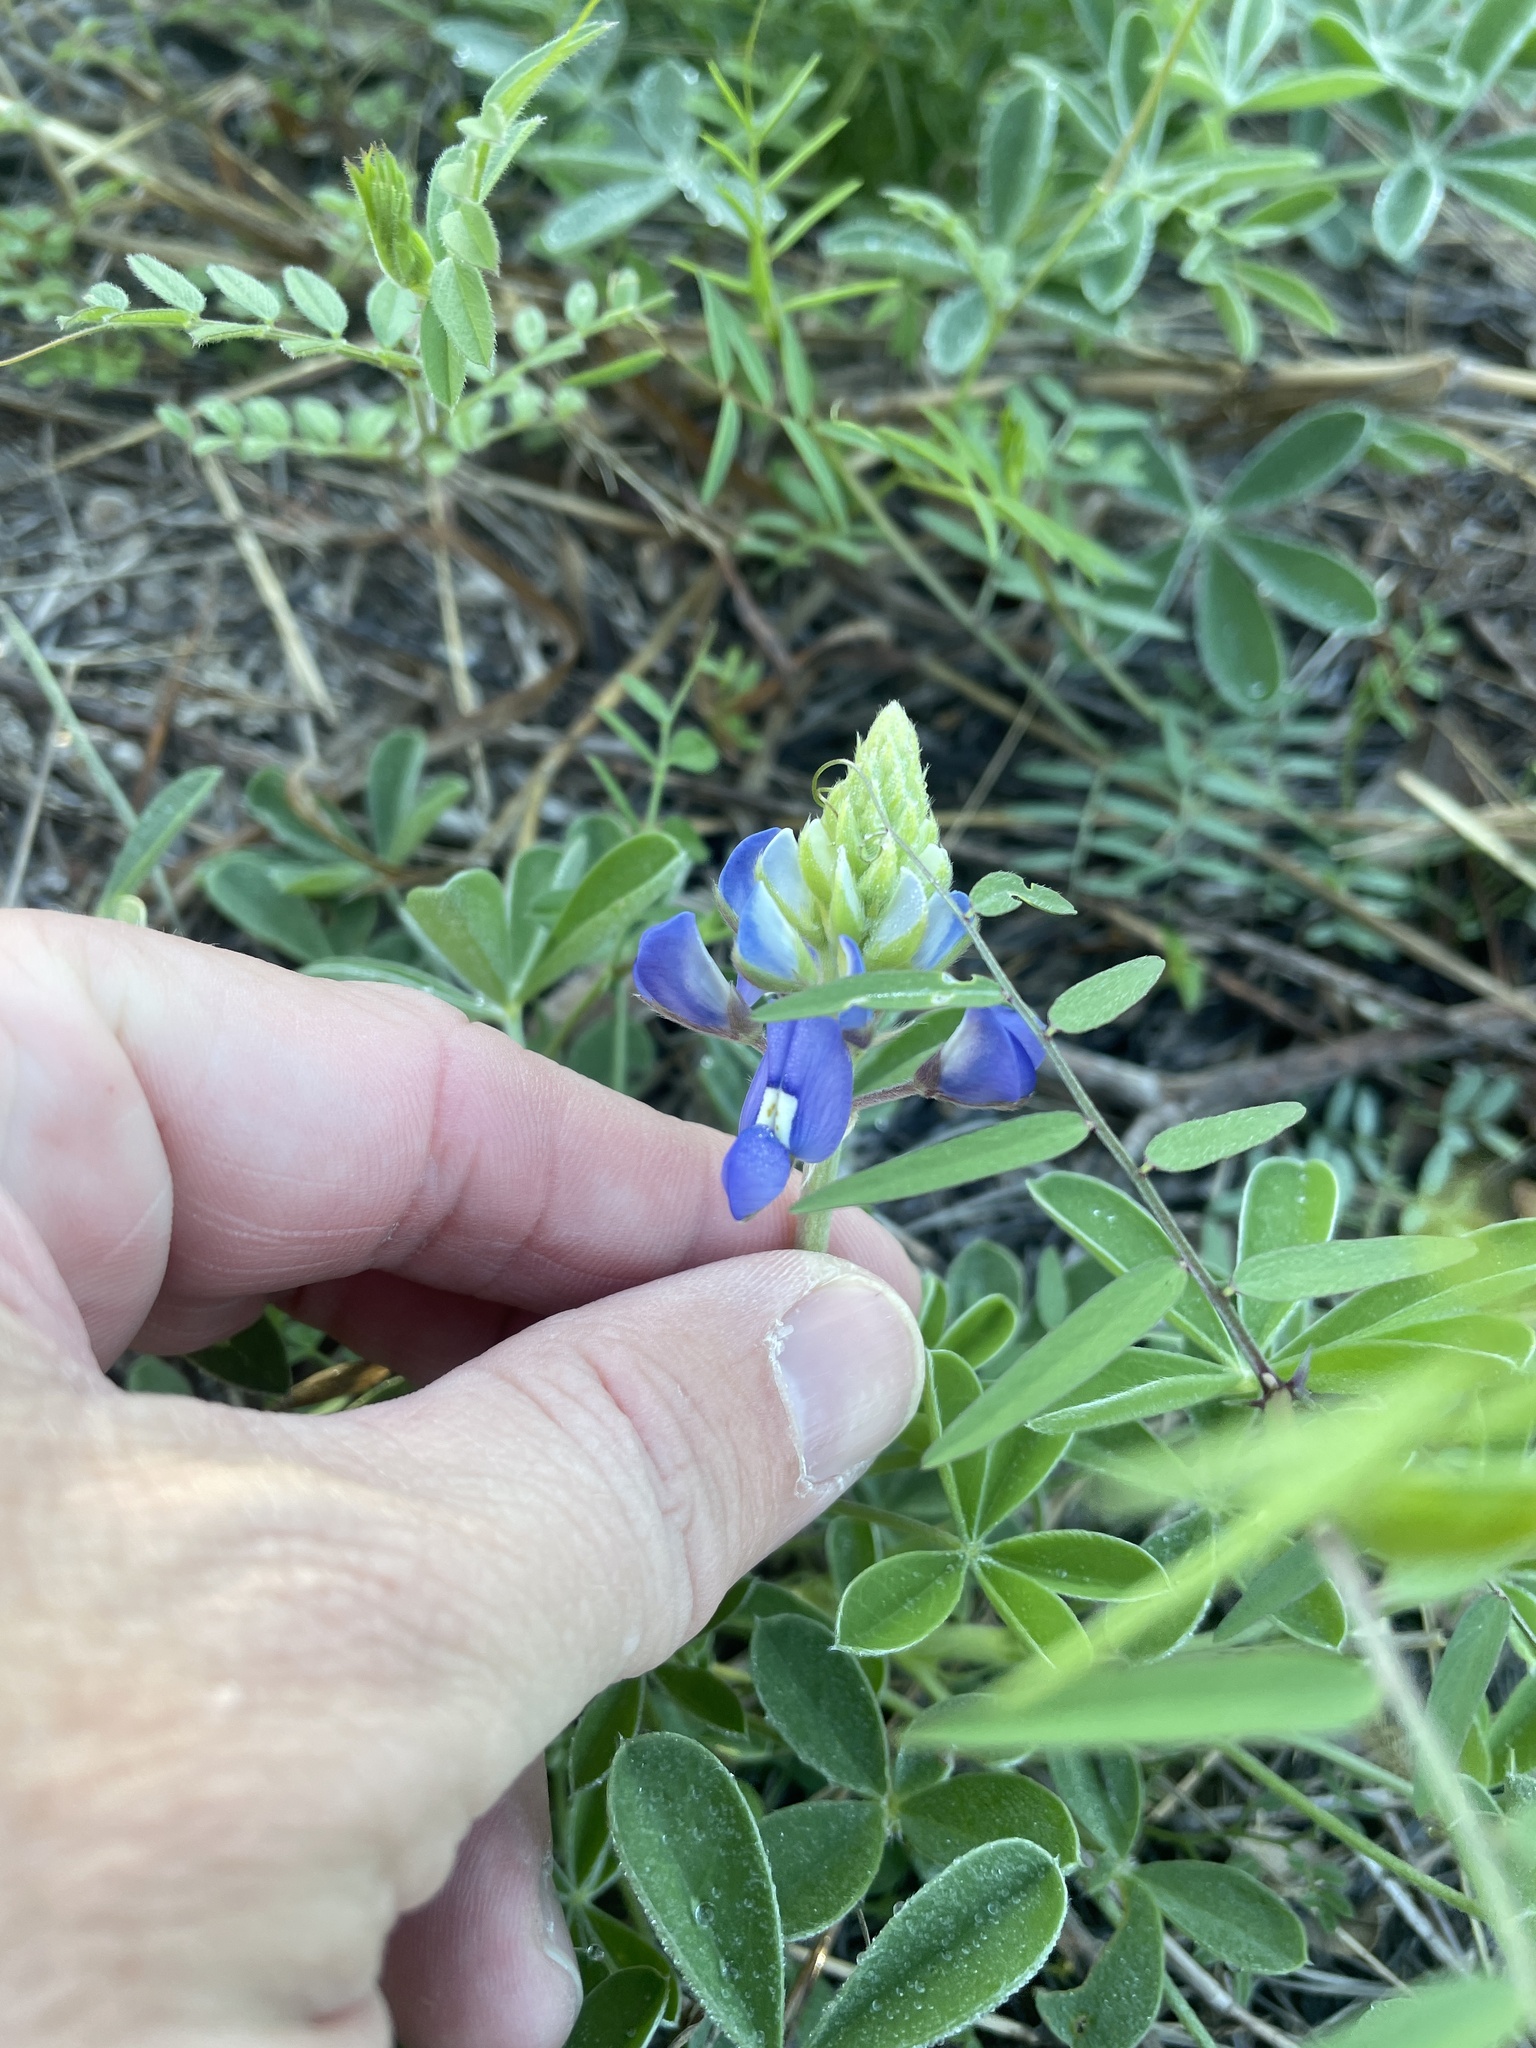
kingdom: Plantae
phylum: Tracheophyta
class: Magnoliopsida
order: Fabales
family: Fabaceae
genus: Lupinus
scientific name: Lupinus texensis
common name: Texas bluebonnet
